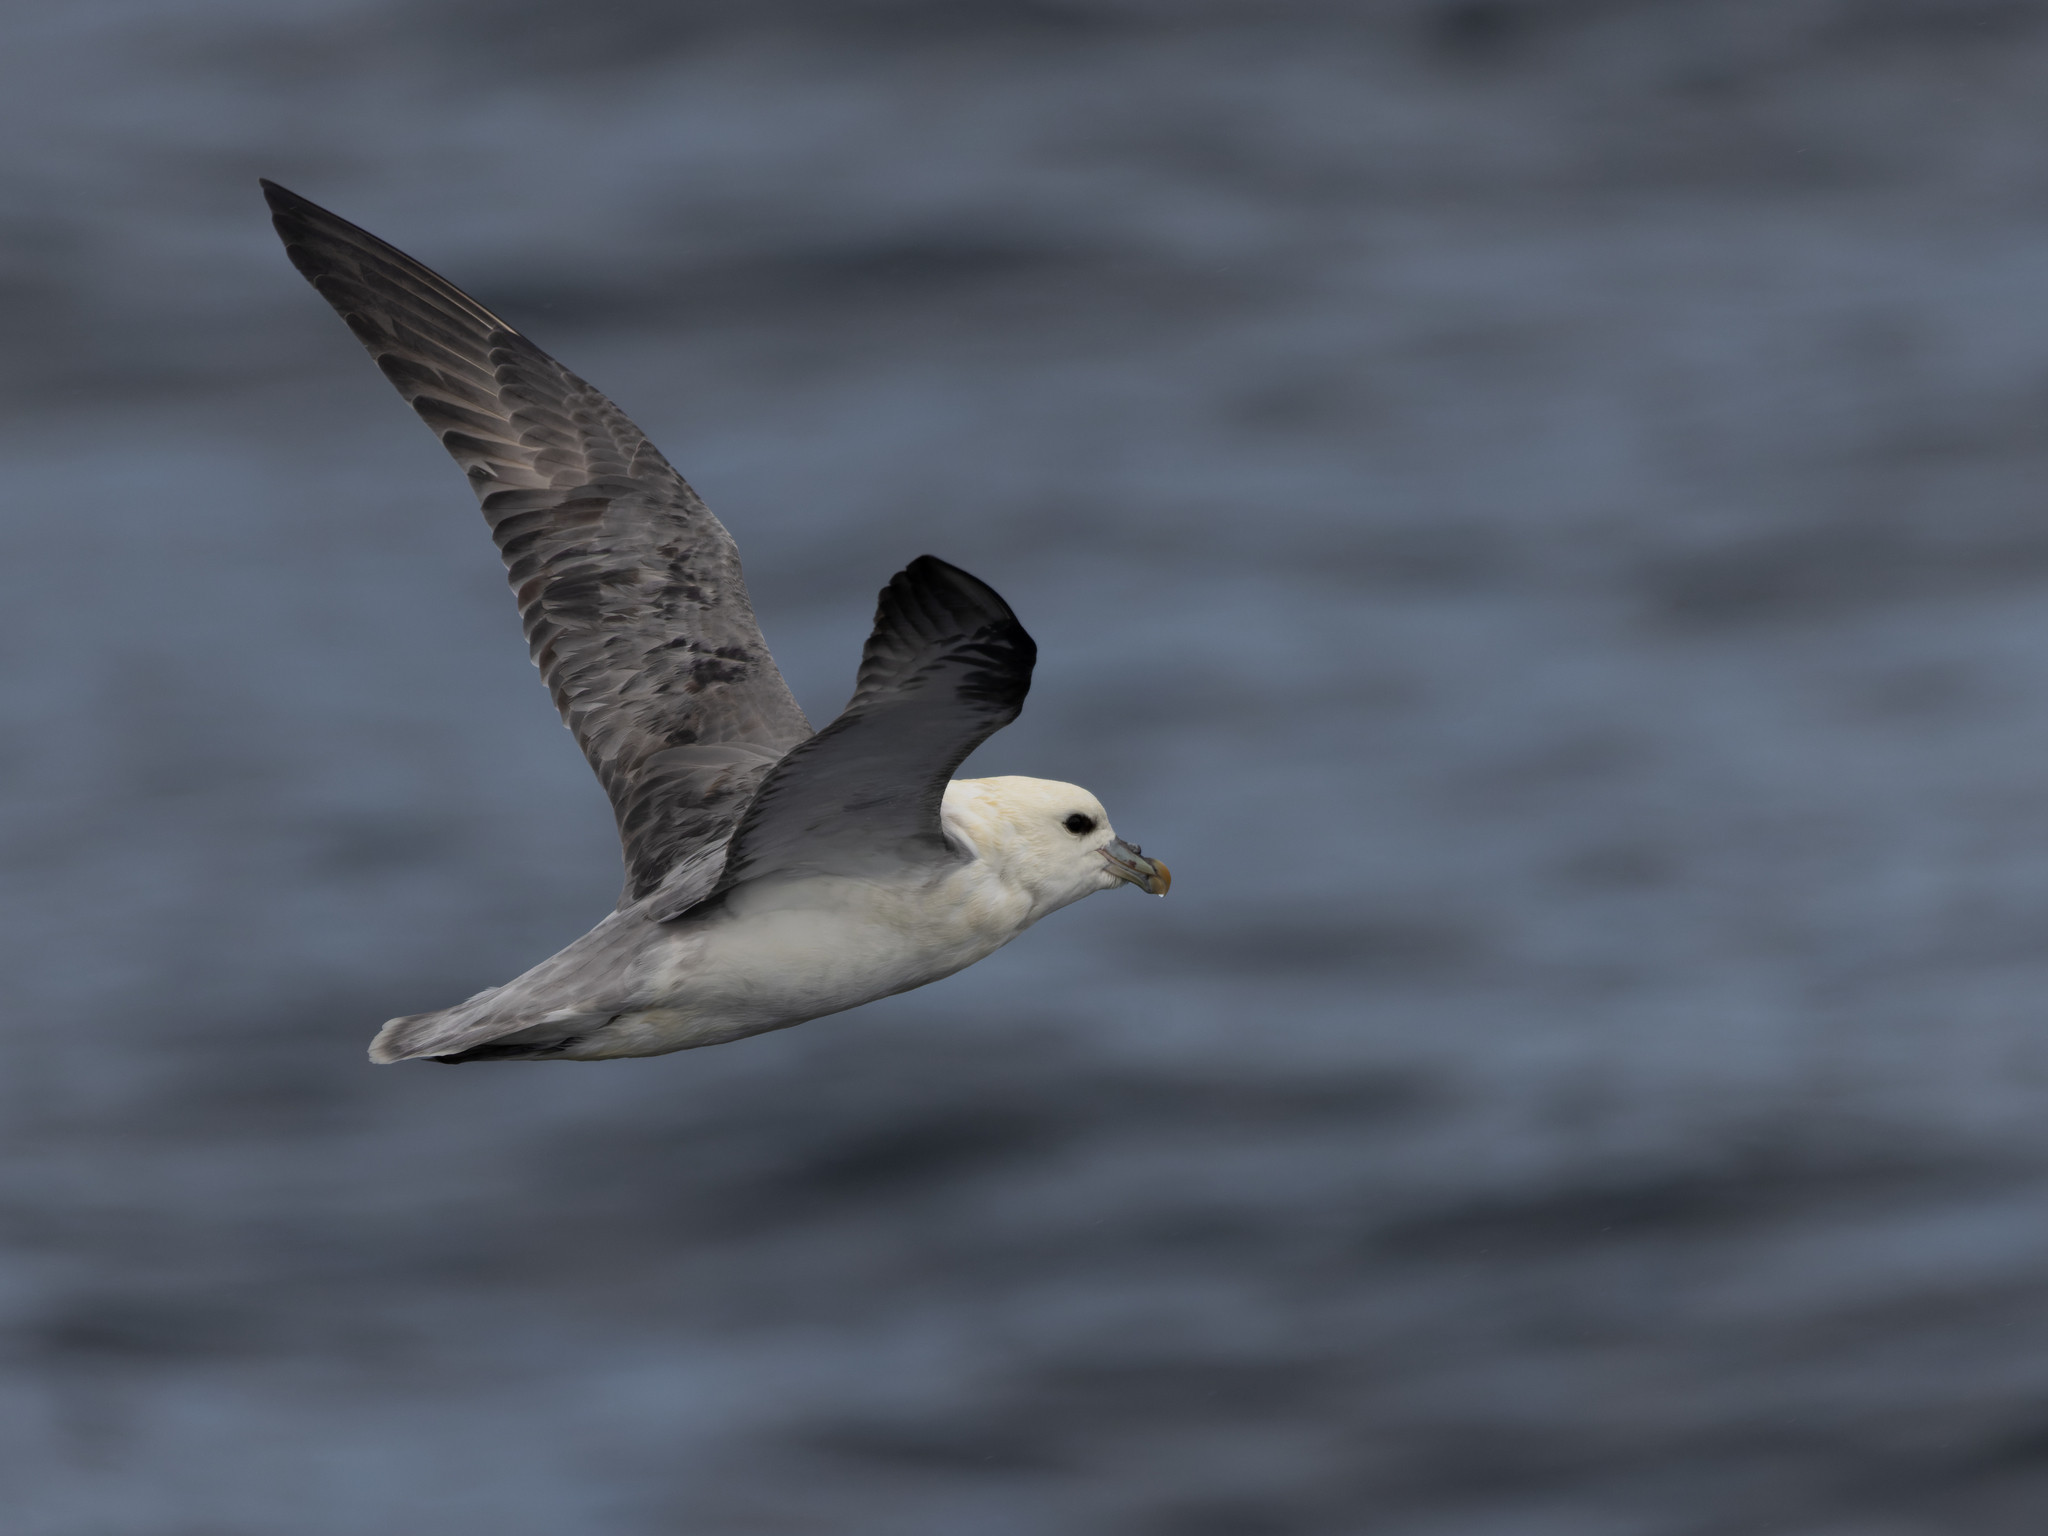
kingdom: Animalia
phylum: Chordata
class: Aves
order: Procellariiformes
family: Procellariidae
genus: Fulmarus
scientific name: Fulmarus glacialis
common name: Northern fulmar
